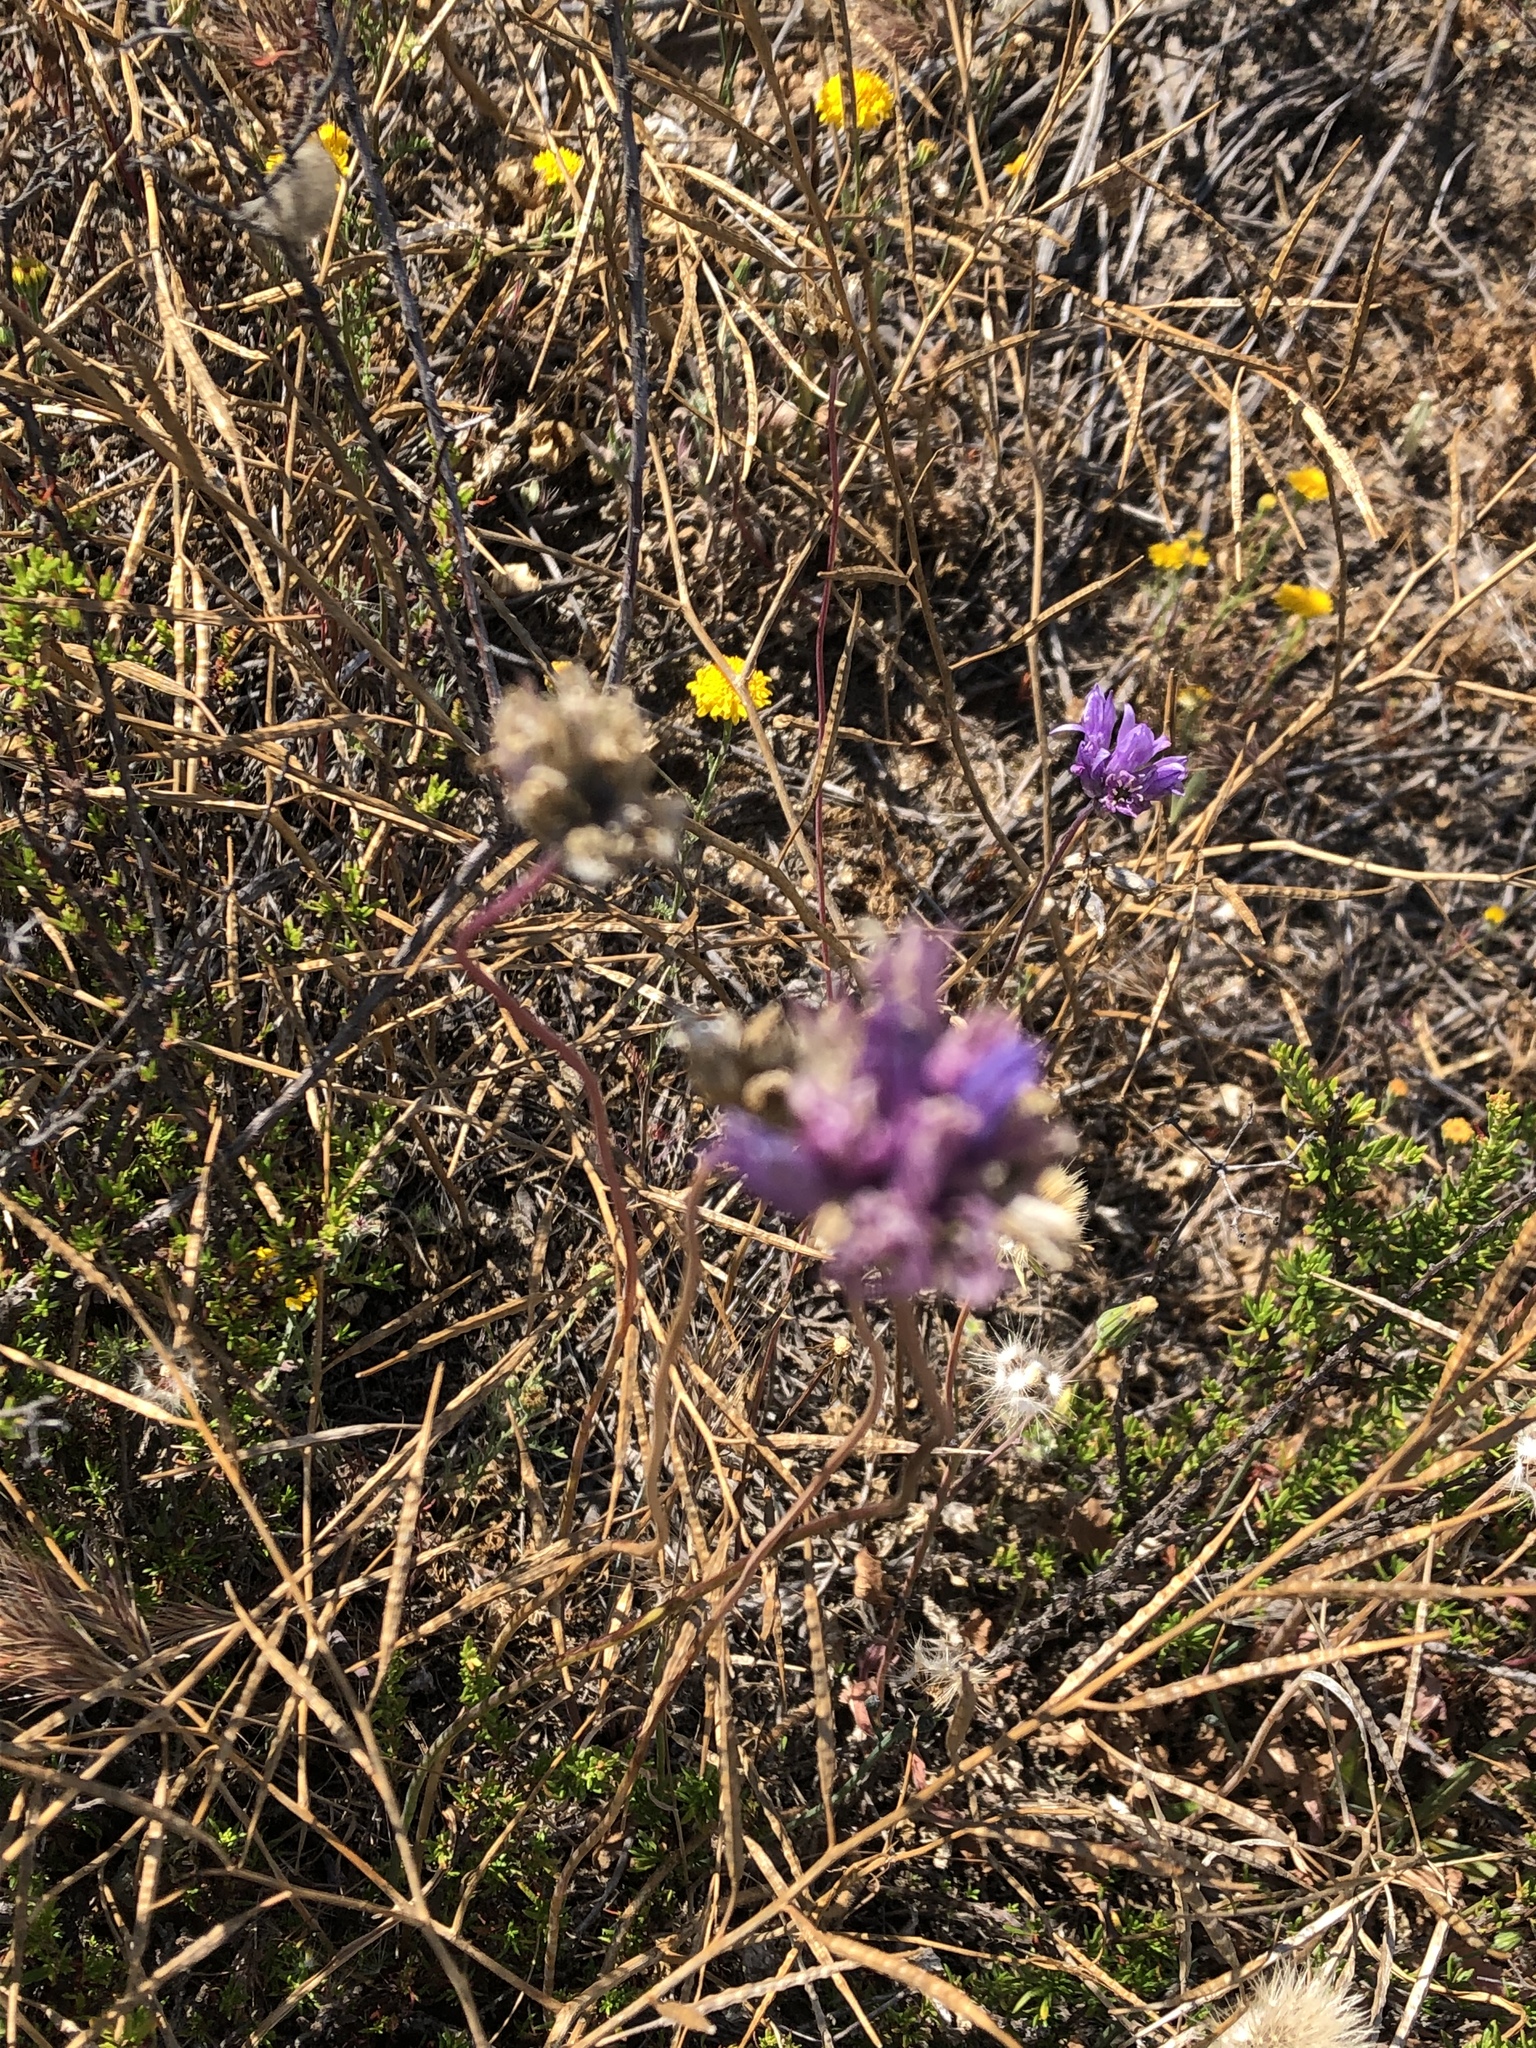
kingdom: Plantae
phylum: Tracheophyta
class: Liliopsida
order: Asparagales
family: Asparagaceae
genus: Dipterostemon
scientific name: Dipterostemon capitatus
